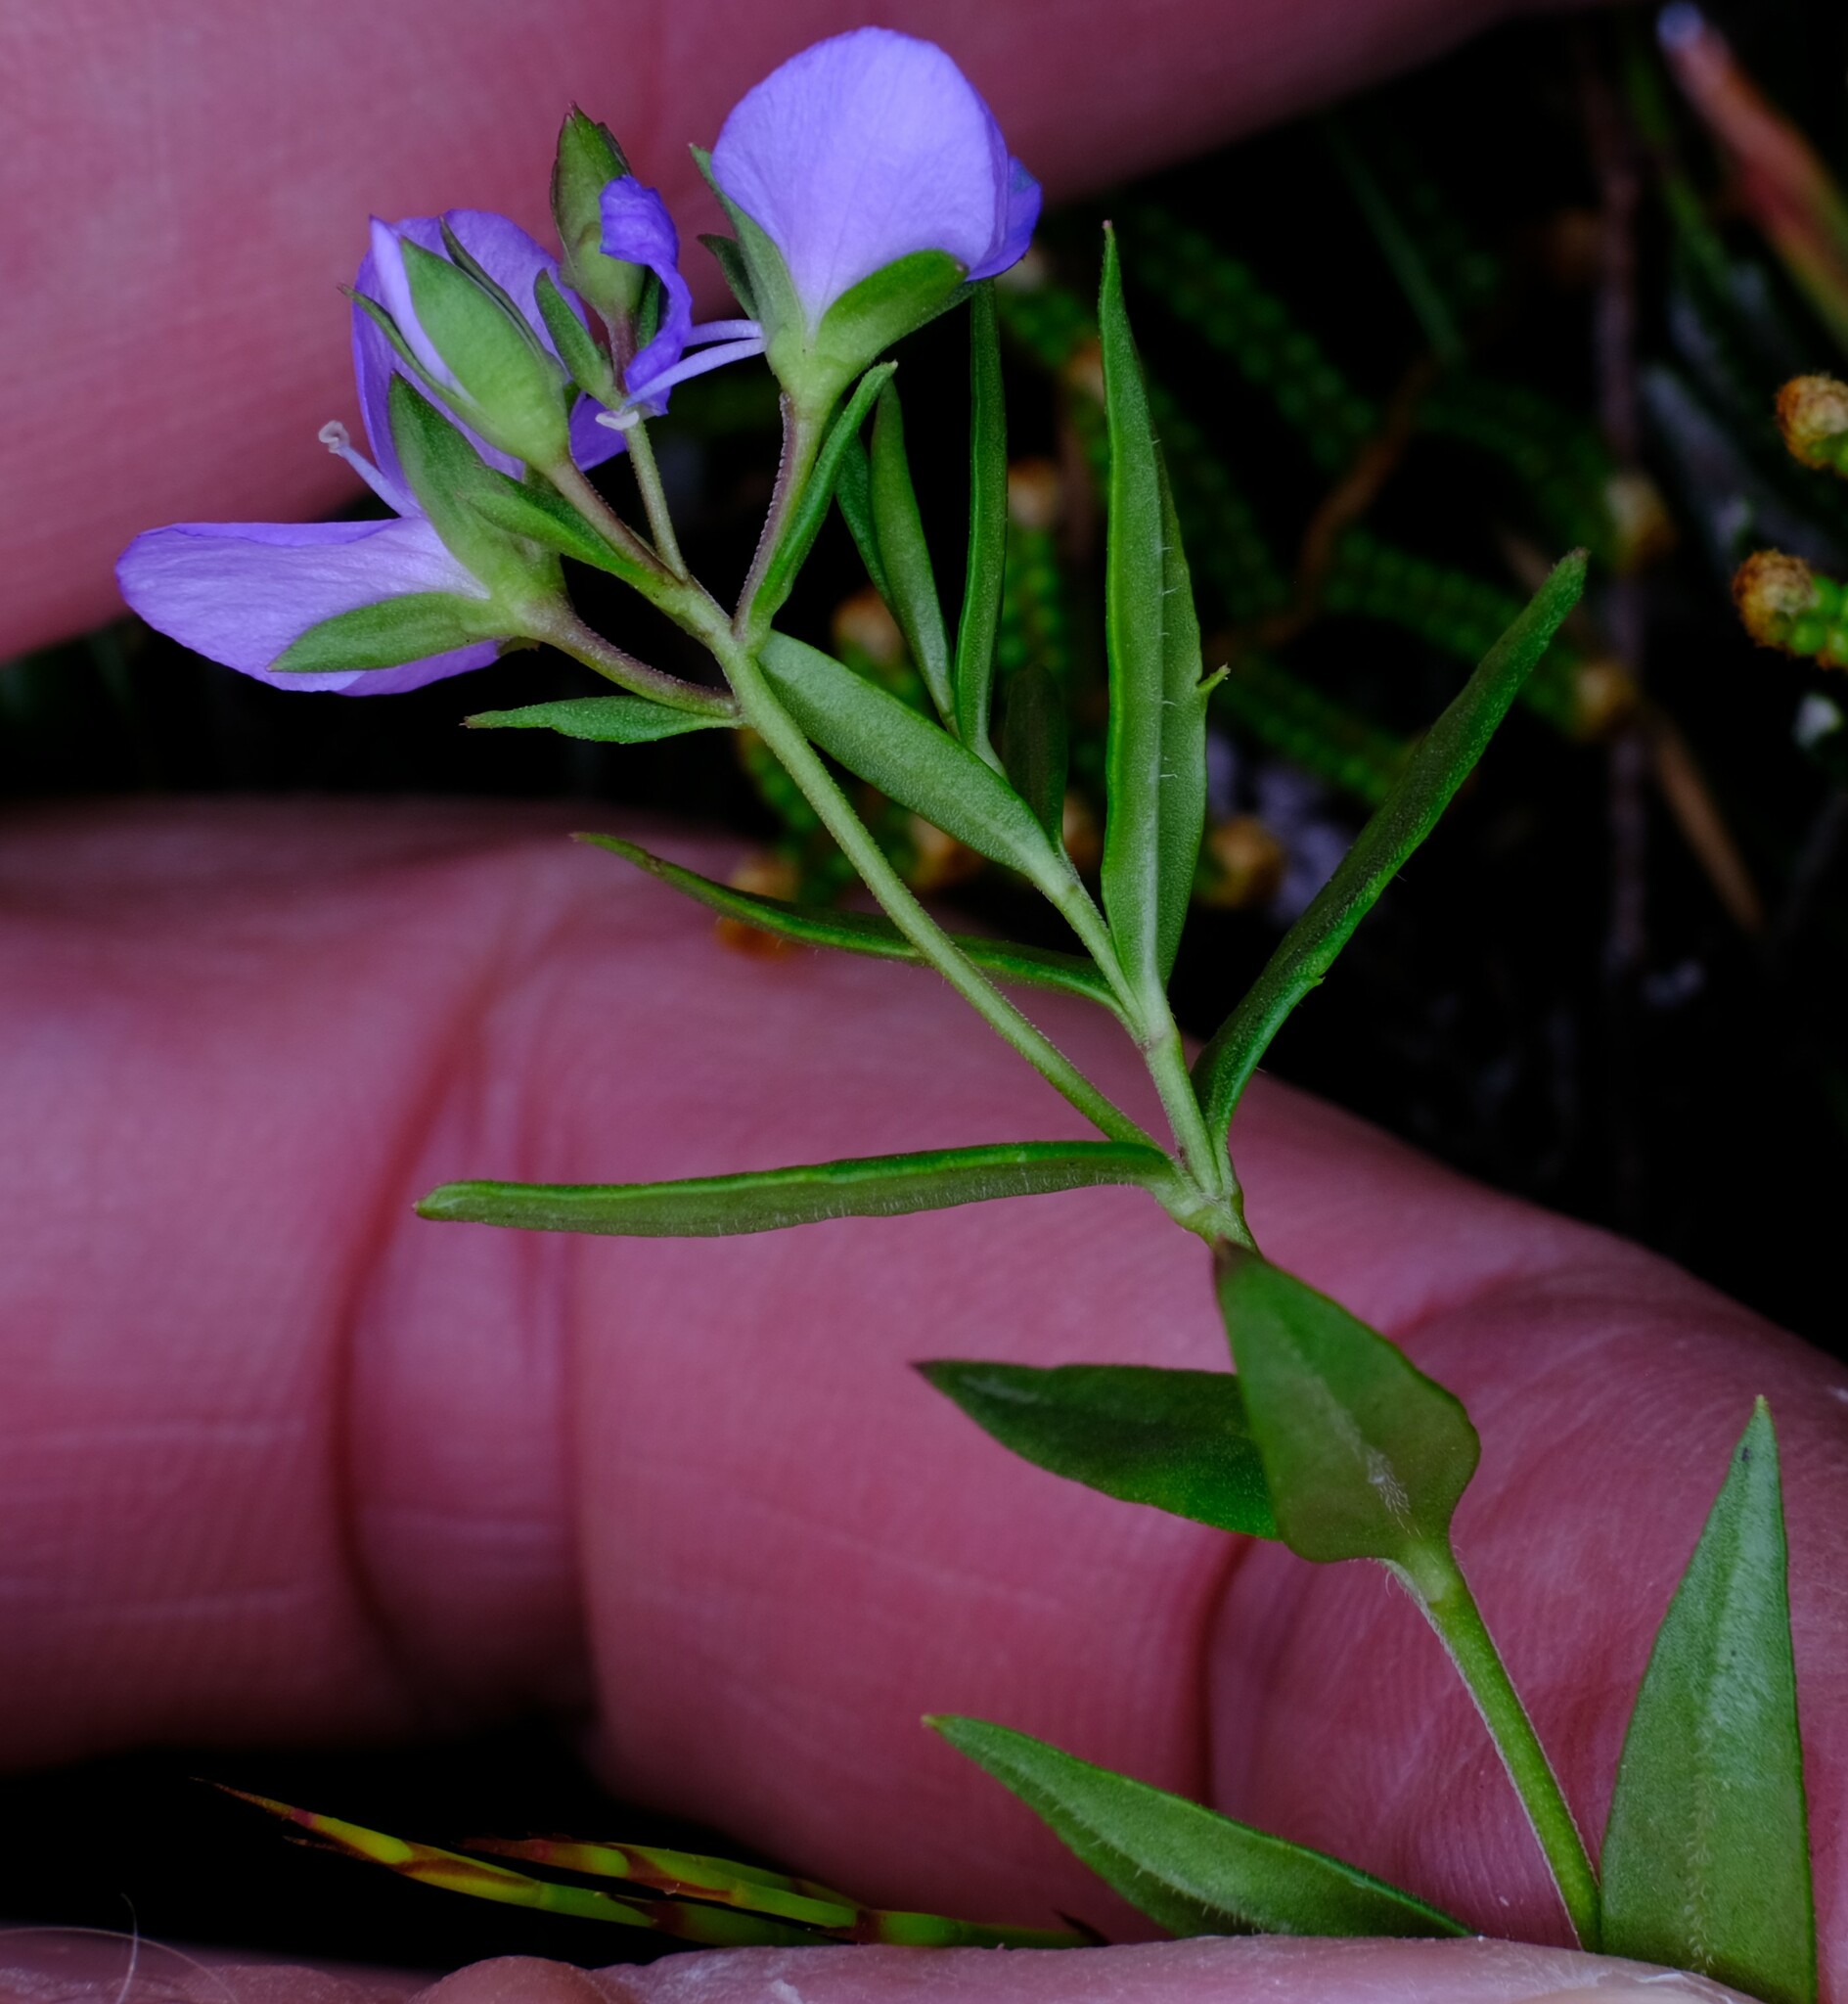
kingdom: Plantae
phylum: Tracheophyta
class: Magnoliopsida
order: Lamiales
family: Plantaginaceae
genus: Veronica
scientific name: Veronica gracilis
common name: Slender speedwell
